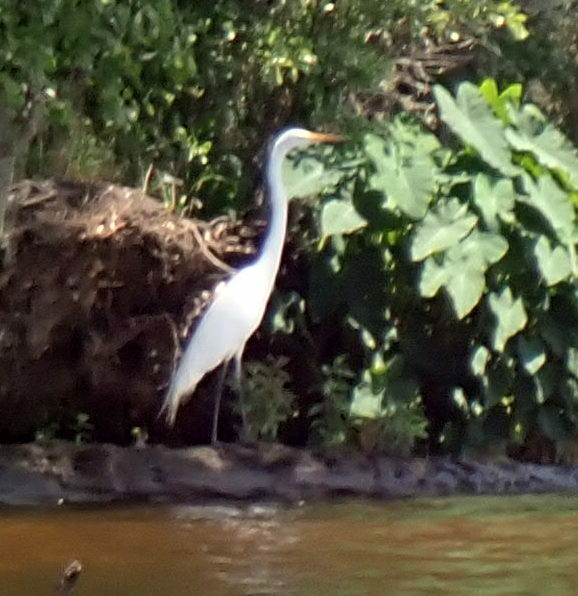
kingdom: Animalia
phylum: Chordata
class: Aves
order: Pelecaniformes
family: Ardeidae
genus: Ardea
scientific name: Ardea alba
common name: Great egret
